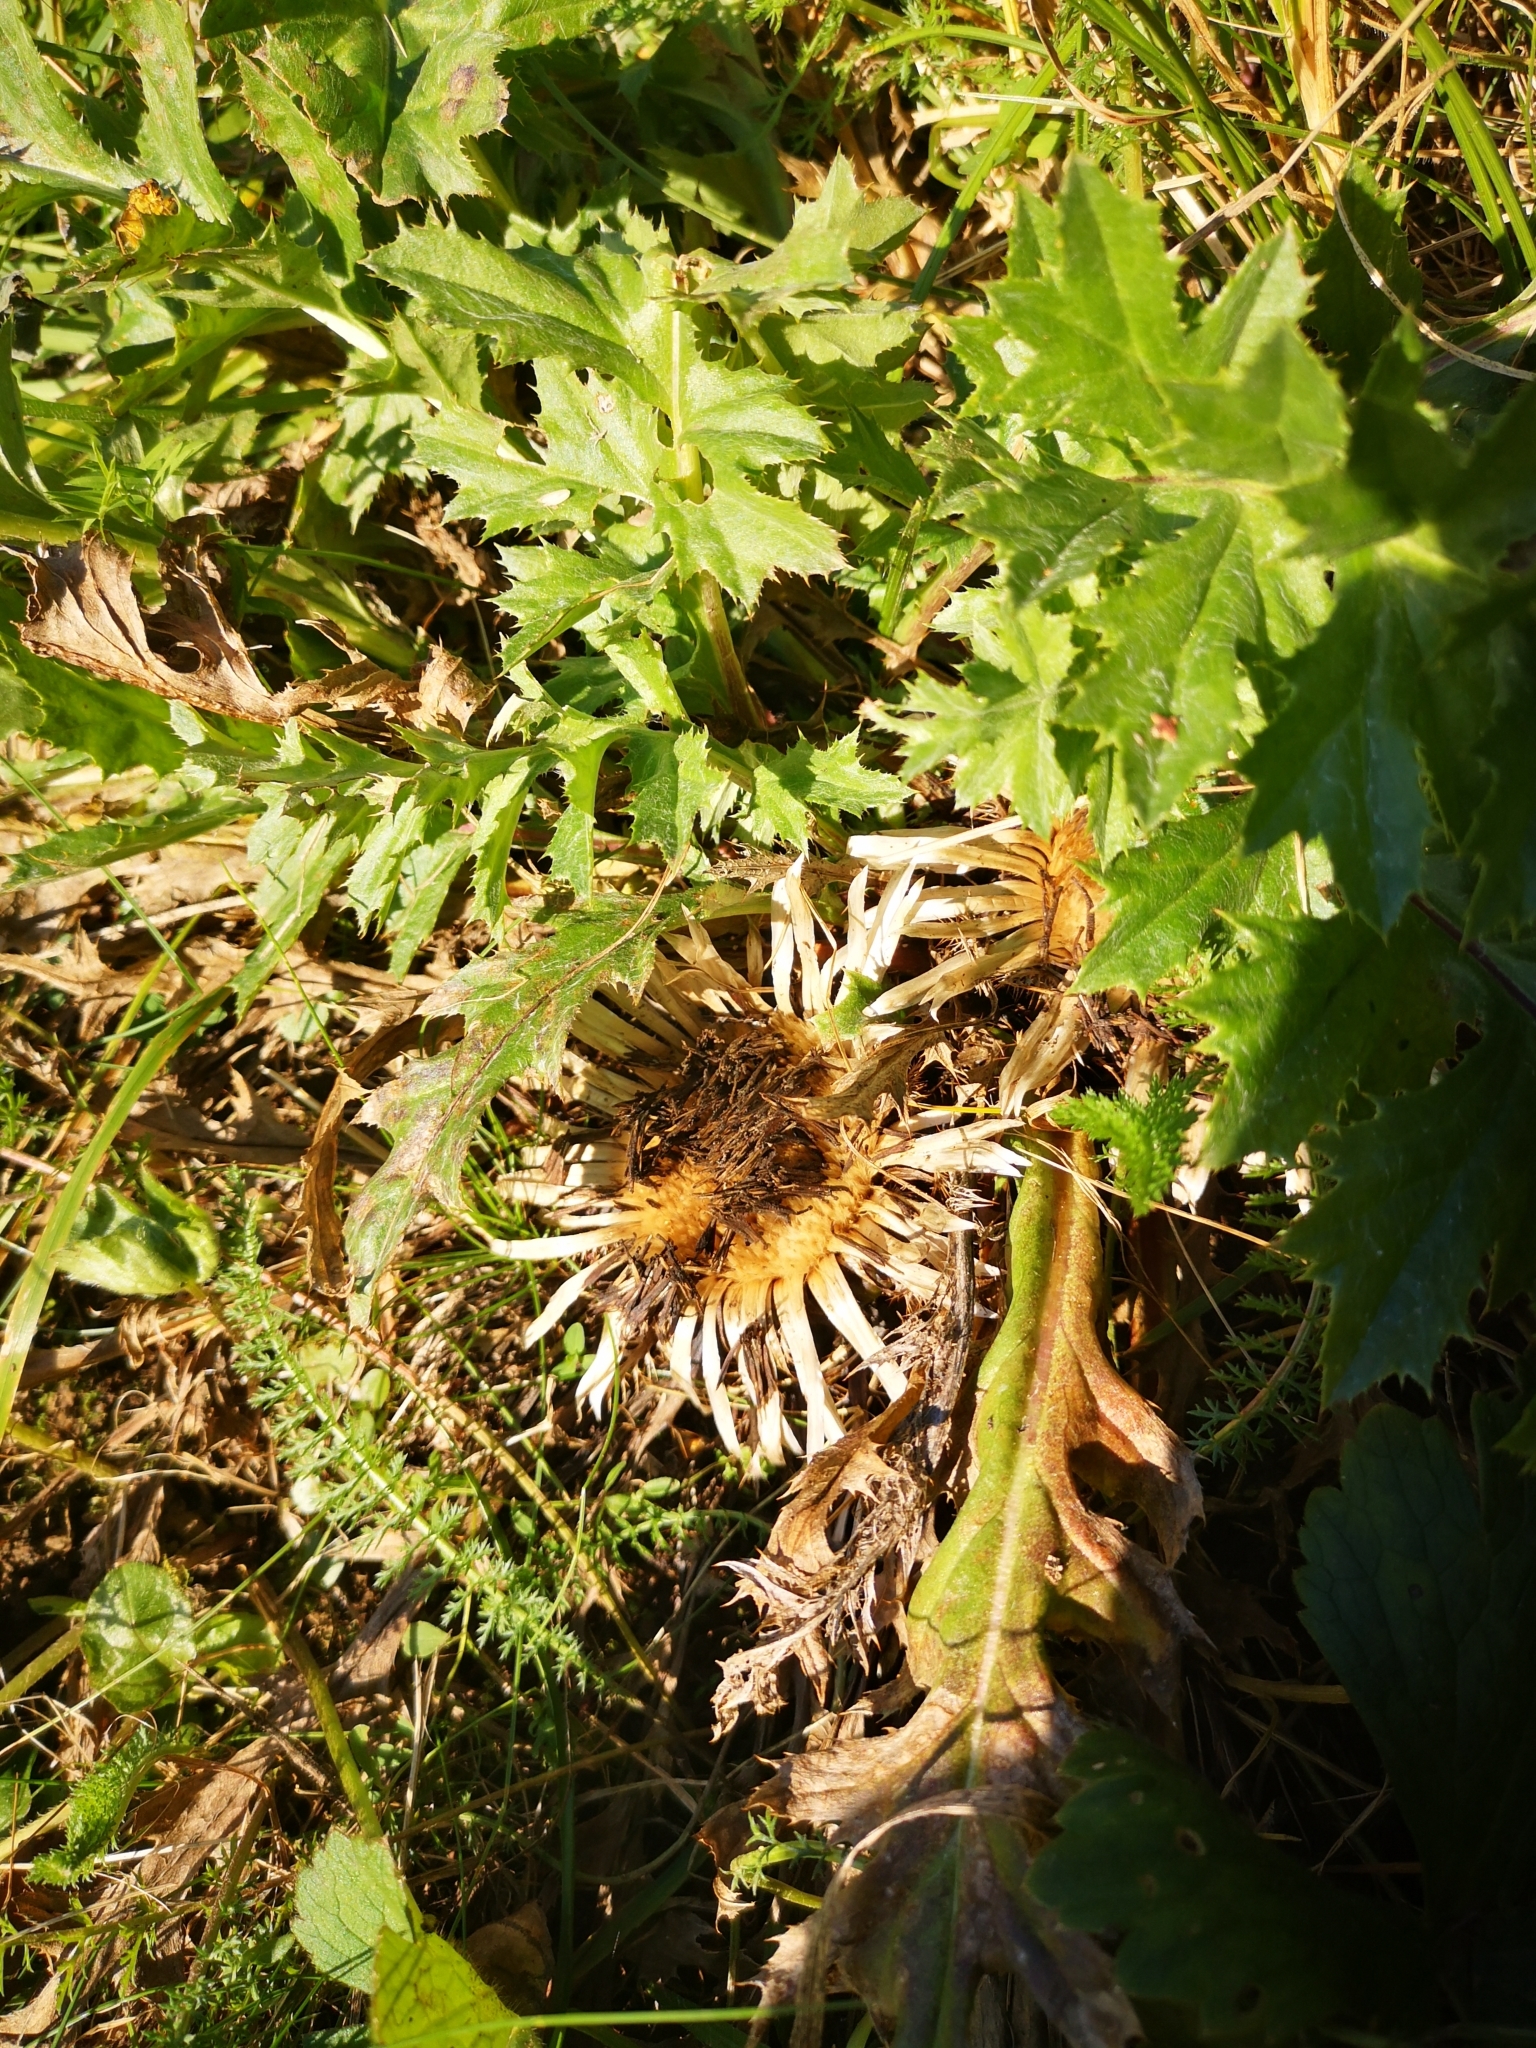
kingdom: Plantae
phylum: Tracheophyta
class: Magnoliopsida
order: Asterales
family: Asteraceae
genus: Carlina
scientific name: Carlina acaulis
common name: Stemless carline thistle
